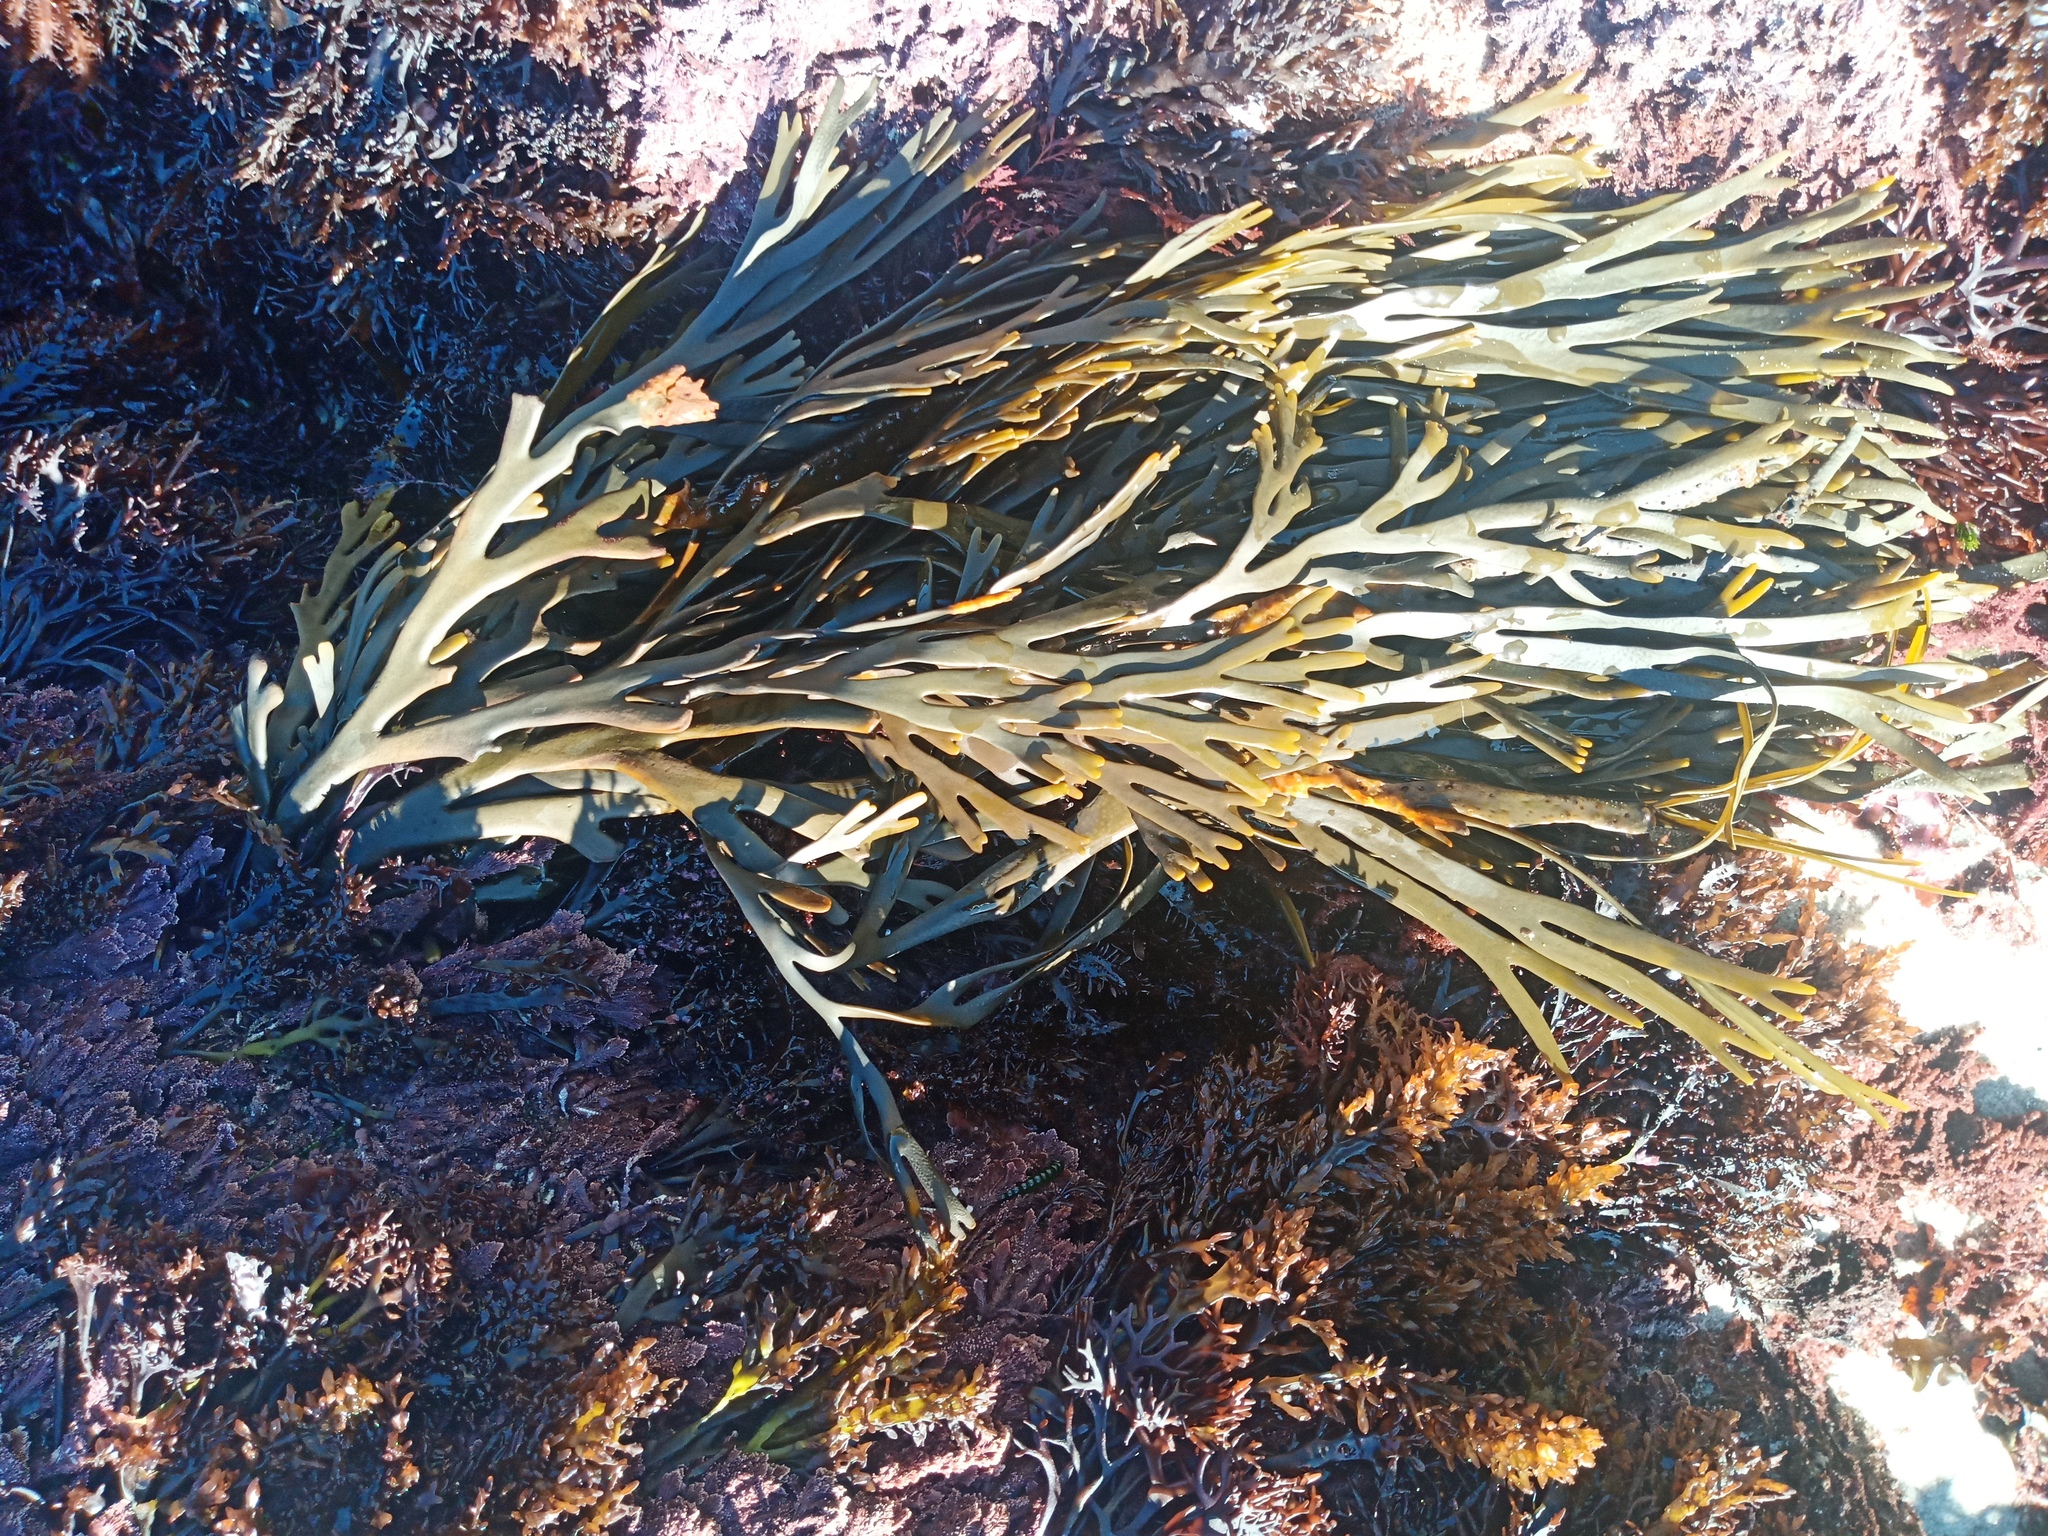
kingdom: Chromista
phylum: Ochrophyta
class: Phaeophyceae
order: Fucales
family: Xiphophoraceae
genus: Xiphophora
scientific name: Xiphophora gladiata
